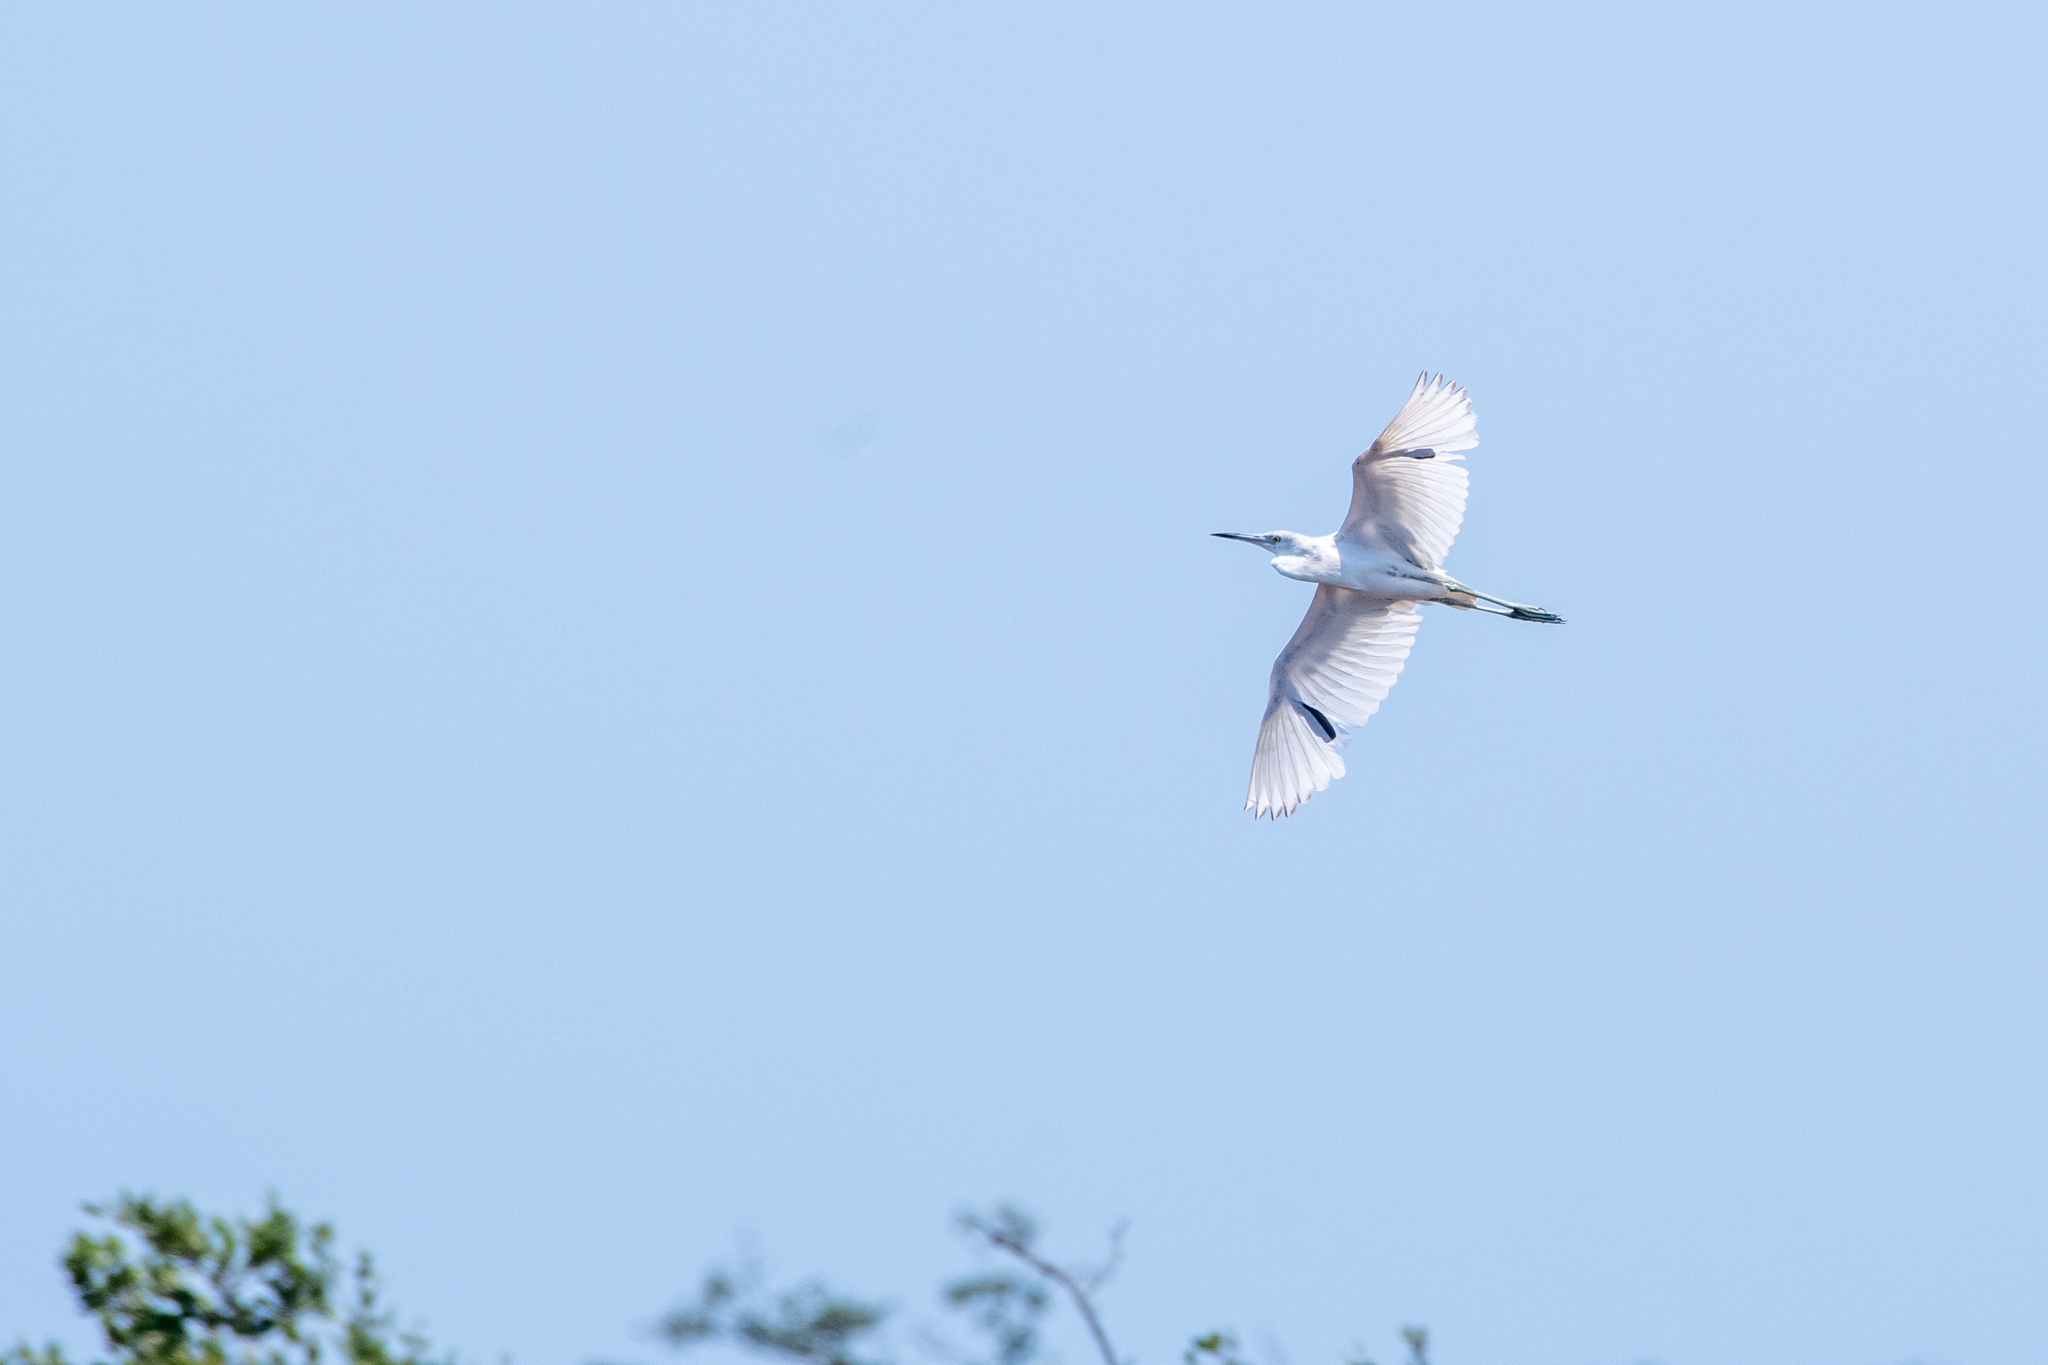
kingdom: Animalia
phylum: Chordata
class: Aves
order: Pelecaniformes
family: Ardeidae
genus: Egretta
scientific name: Egretta caerulea
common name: Little blue heron
